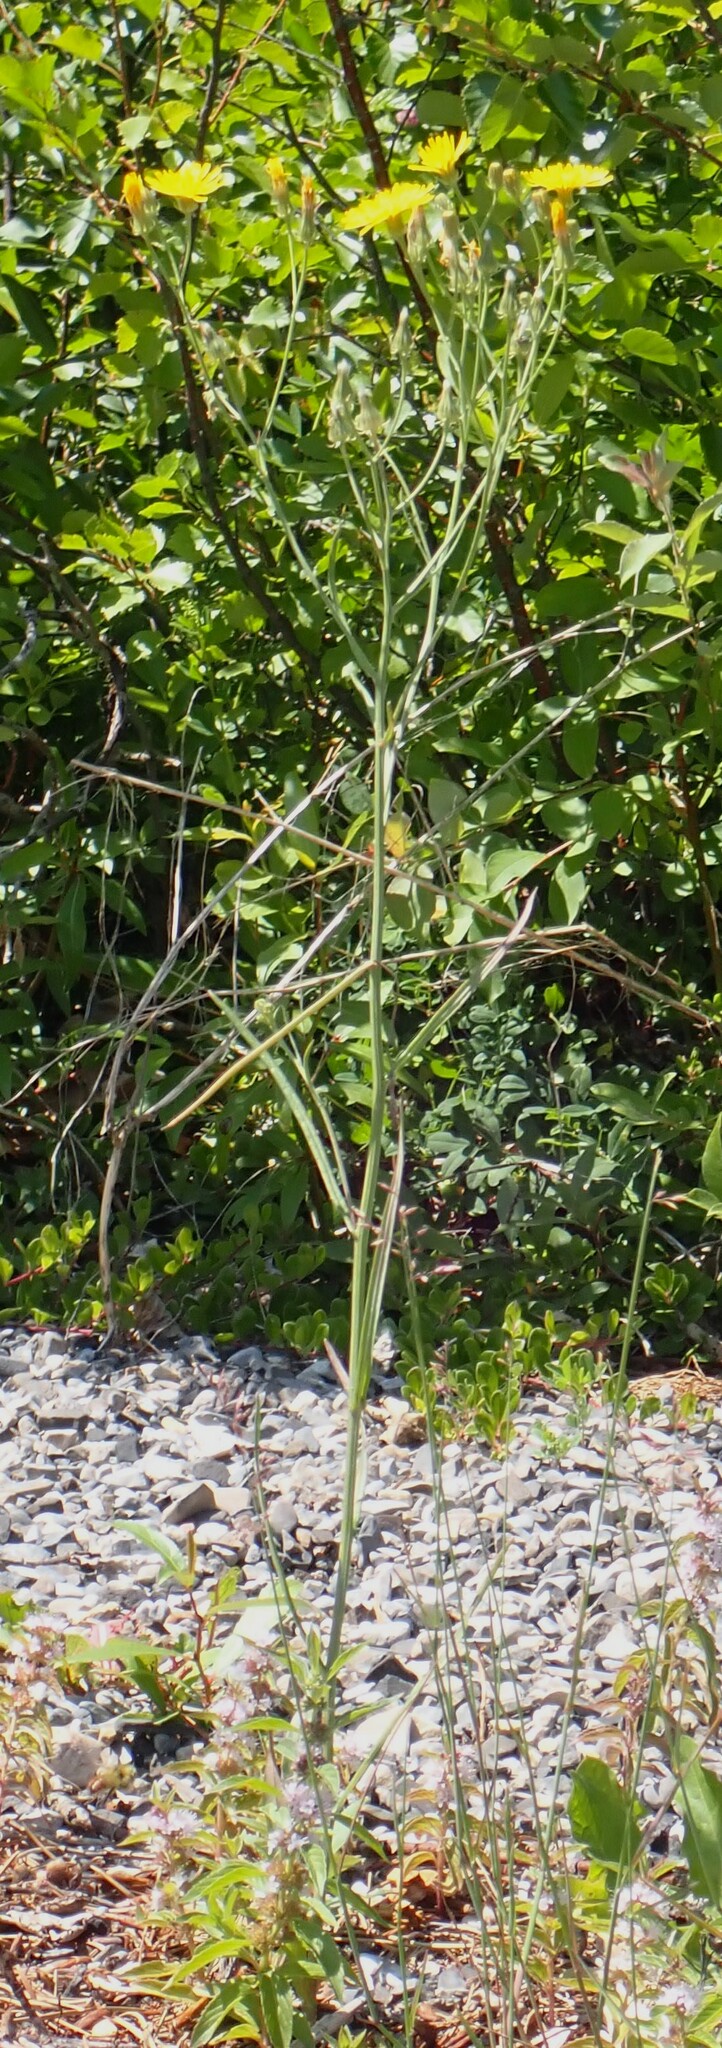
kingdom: Plantae
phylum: Tracheophyta
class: Magnoliopsida
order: Asterales
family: Asteraceae
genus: Crepis
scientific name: Crepis tectorum
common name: Narrow-leaved hawk's-beard
